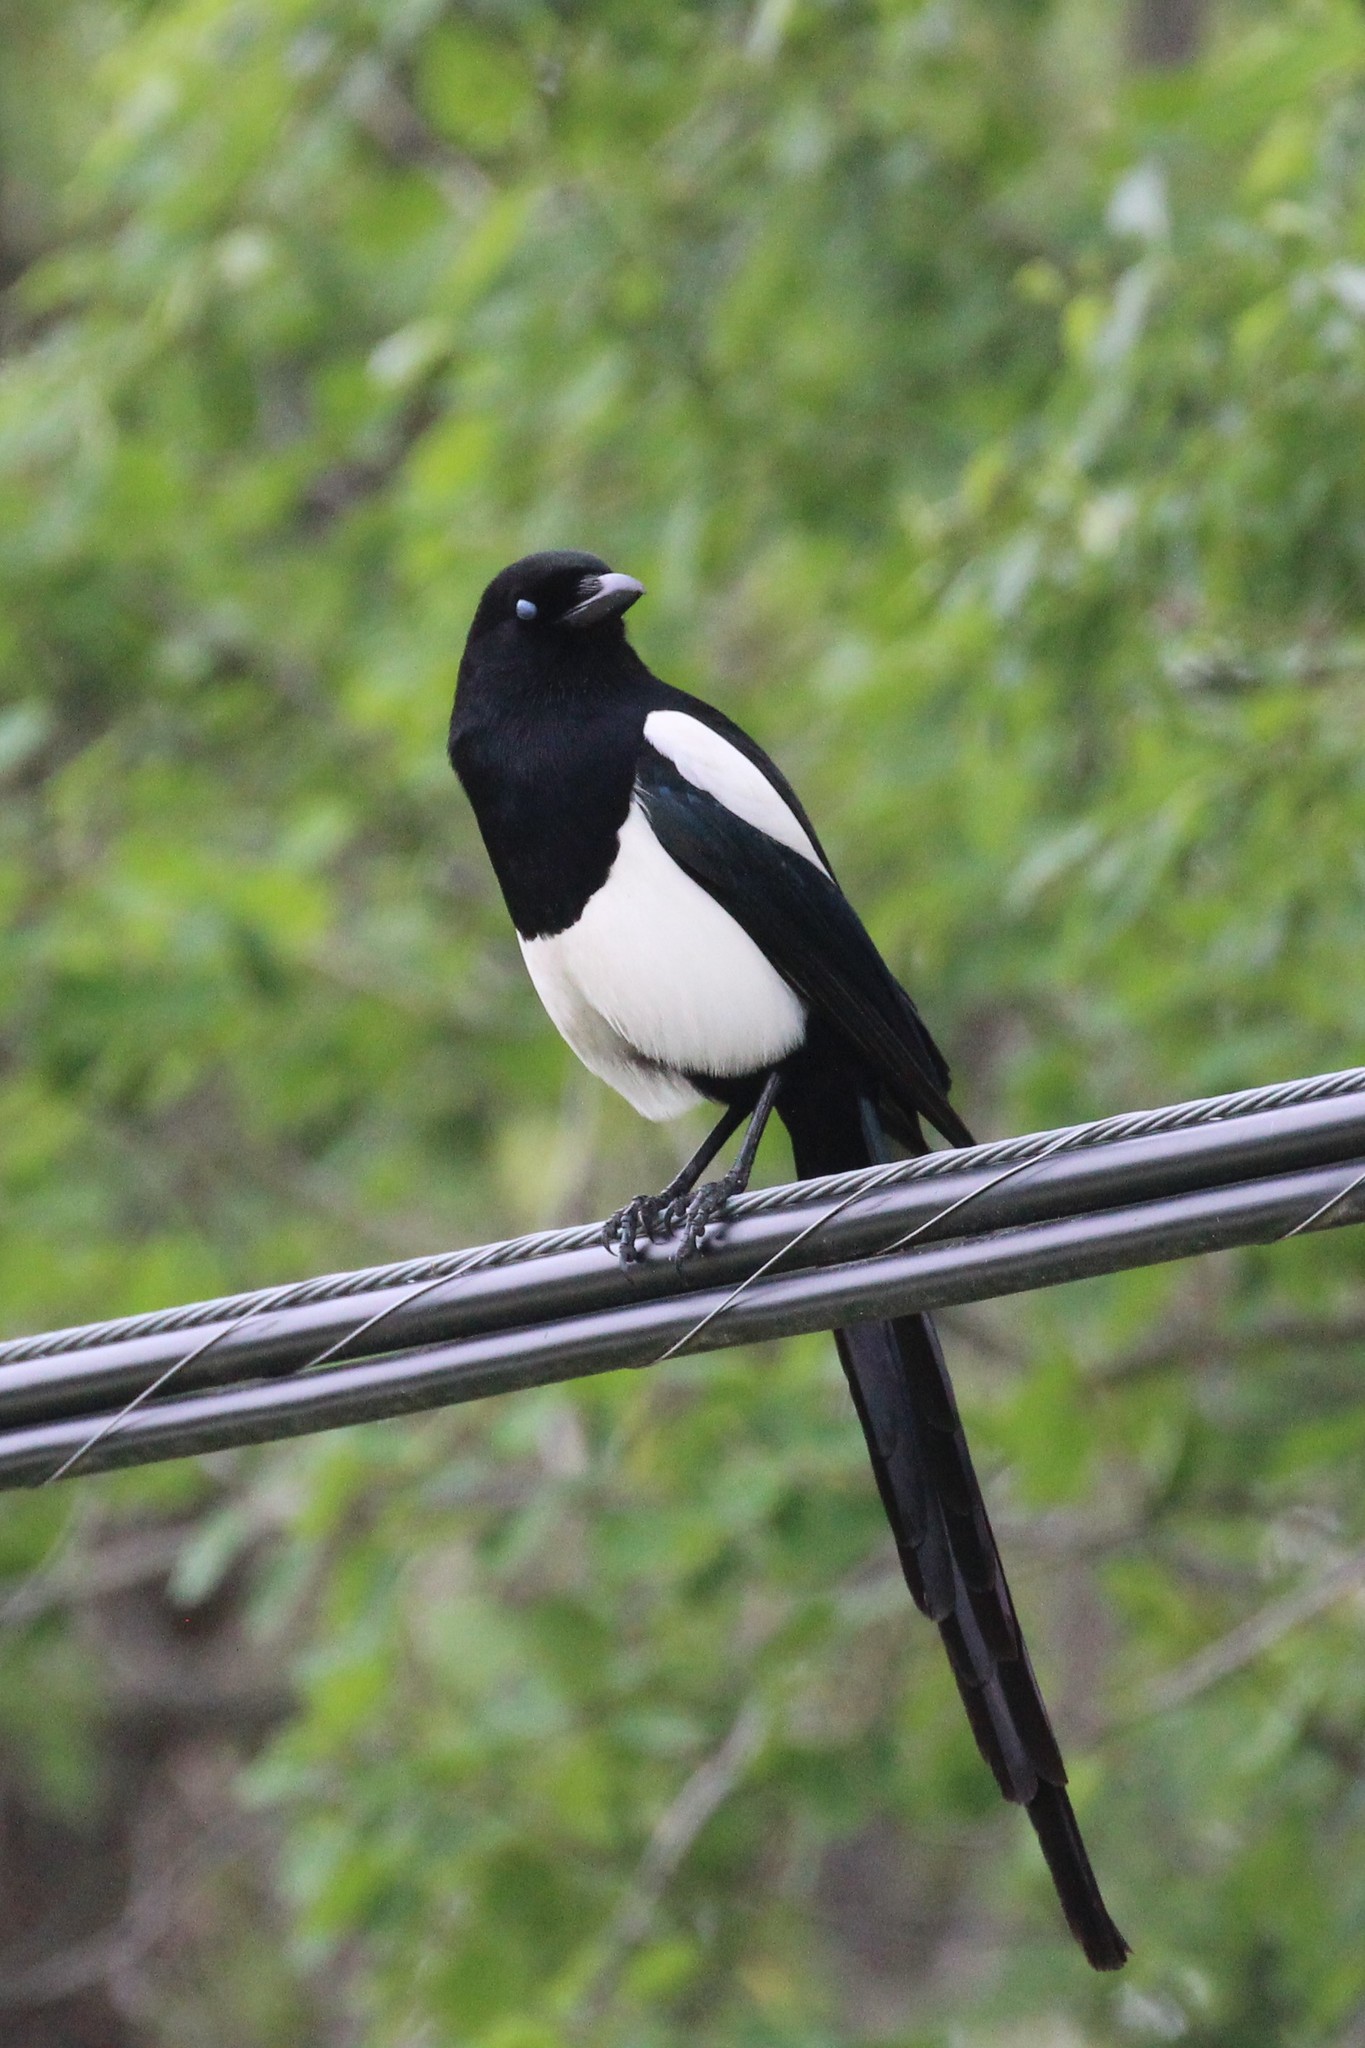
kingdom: Animalia
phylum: Chordata
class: Aves
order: Passeriformes
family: Corvidae
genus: Pica
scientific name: Pica hudsonia
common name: Black-billed magpie
